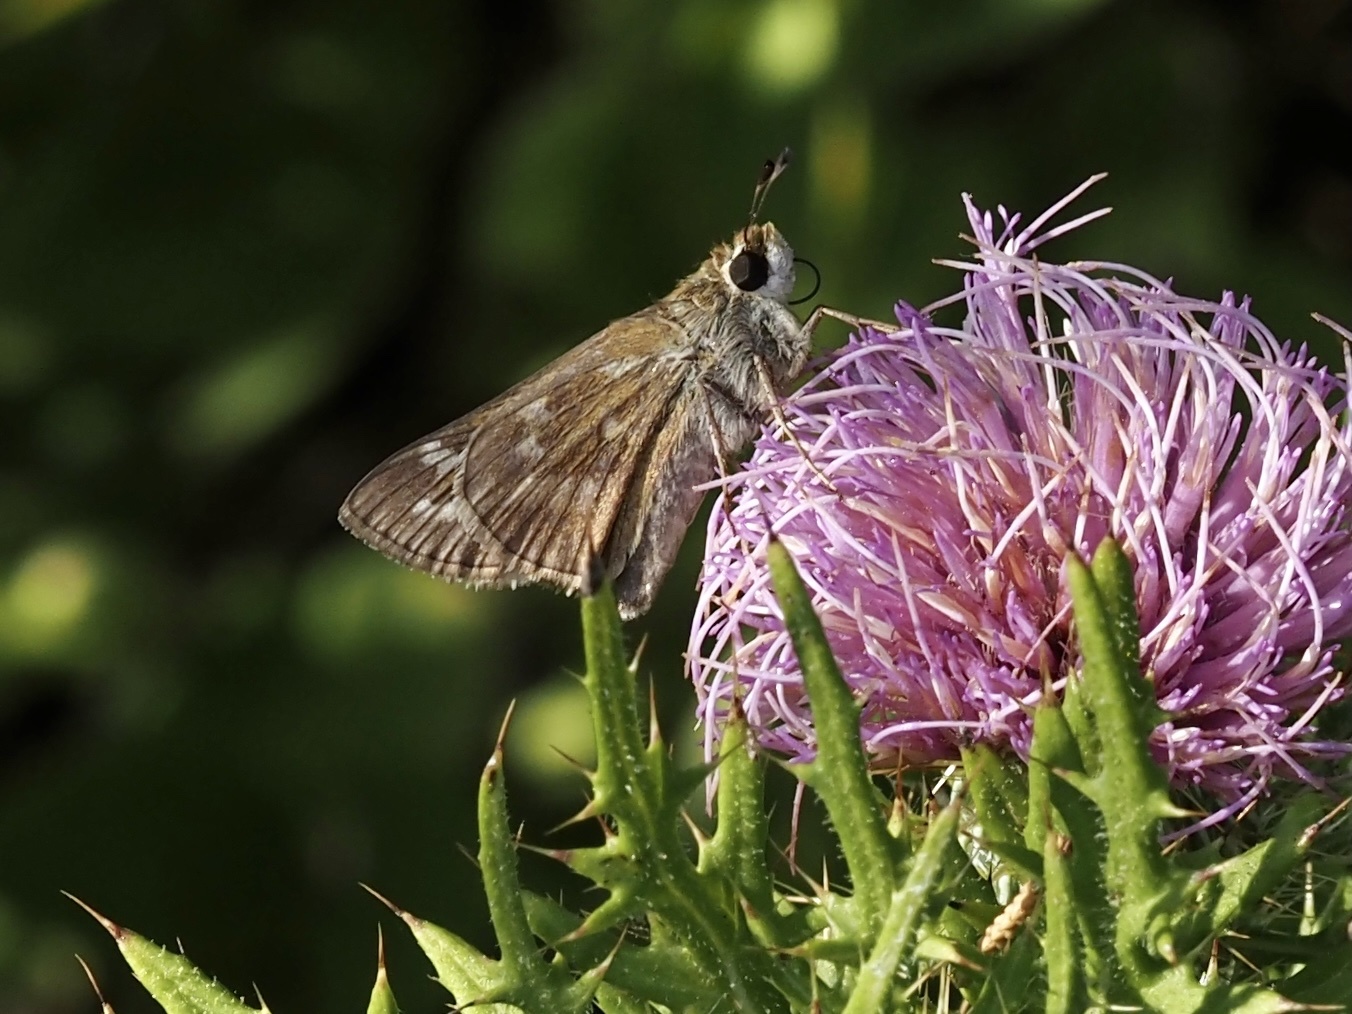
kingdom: Animalia
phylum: Arthropoda
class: Insecta
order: Lepidoptera
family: Hesperiidae
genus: Atalopedes
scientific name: Atalopedes
